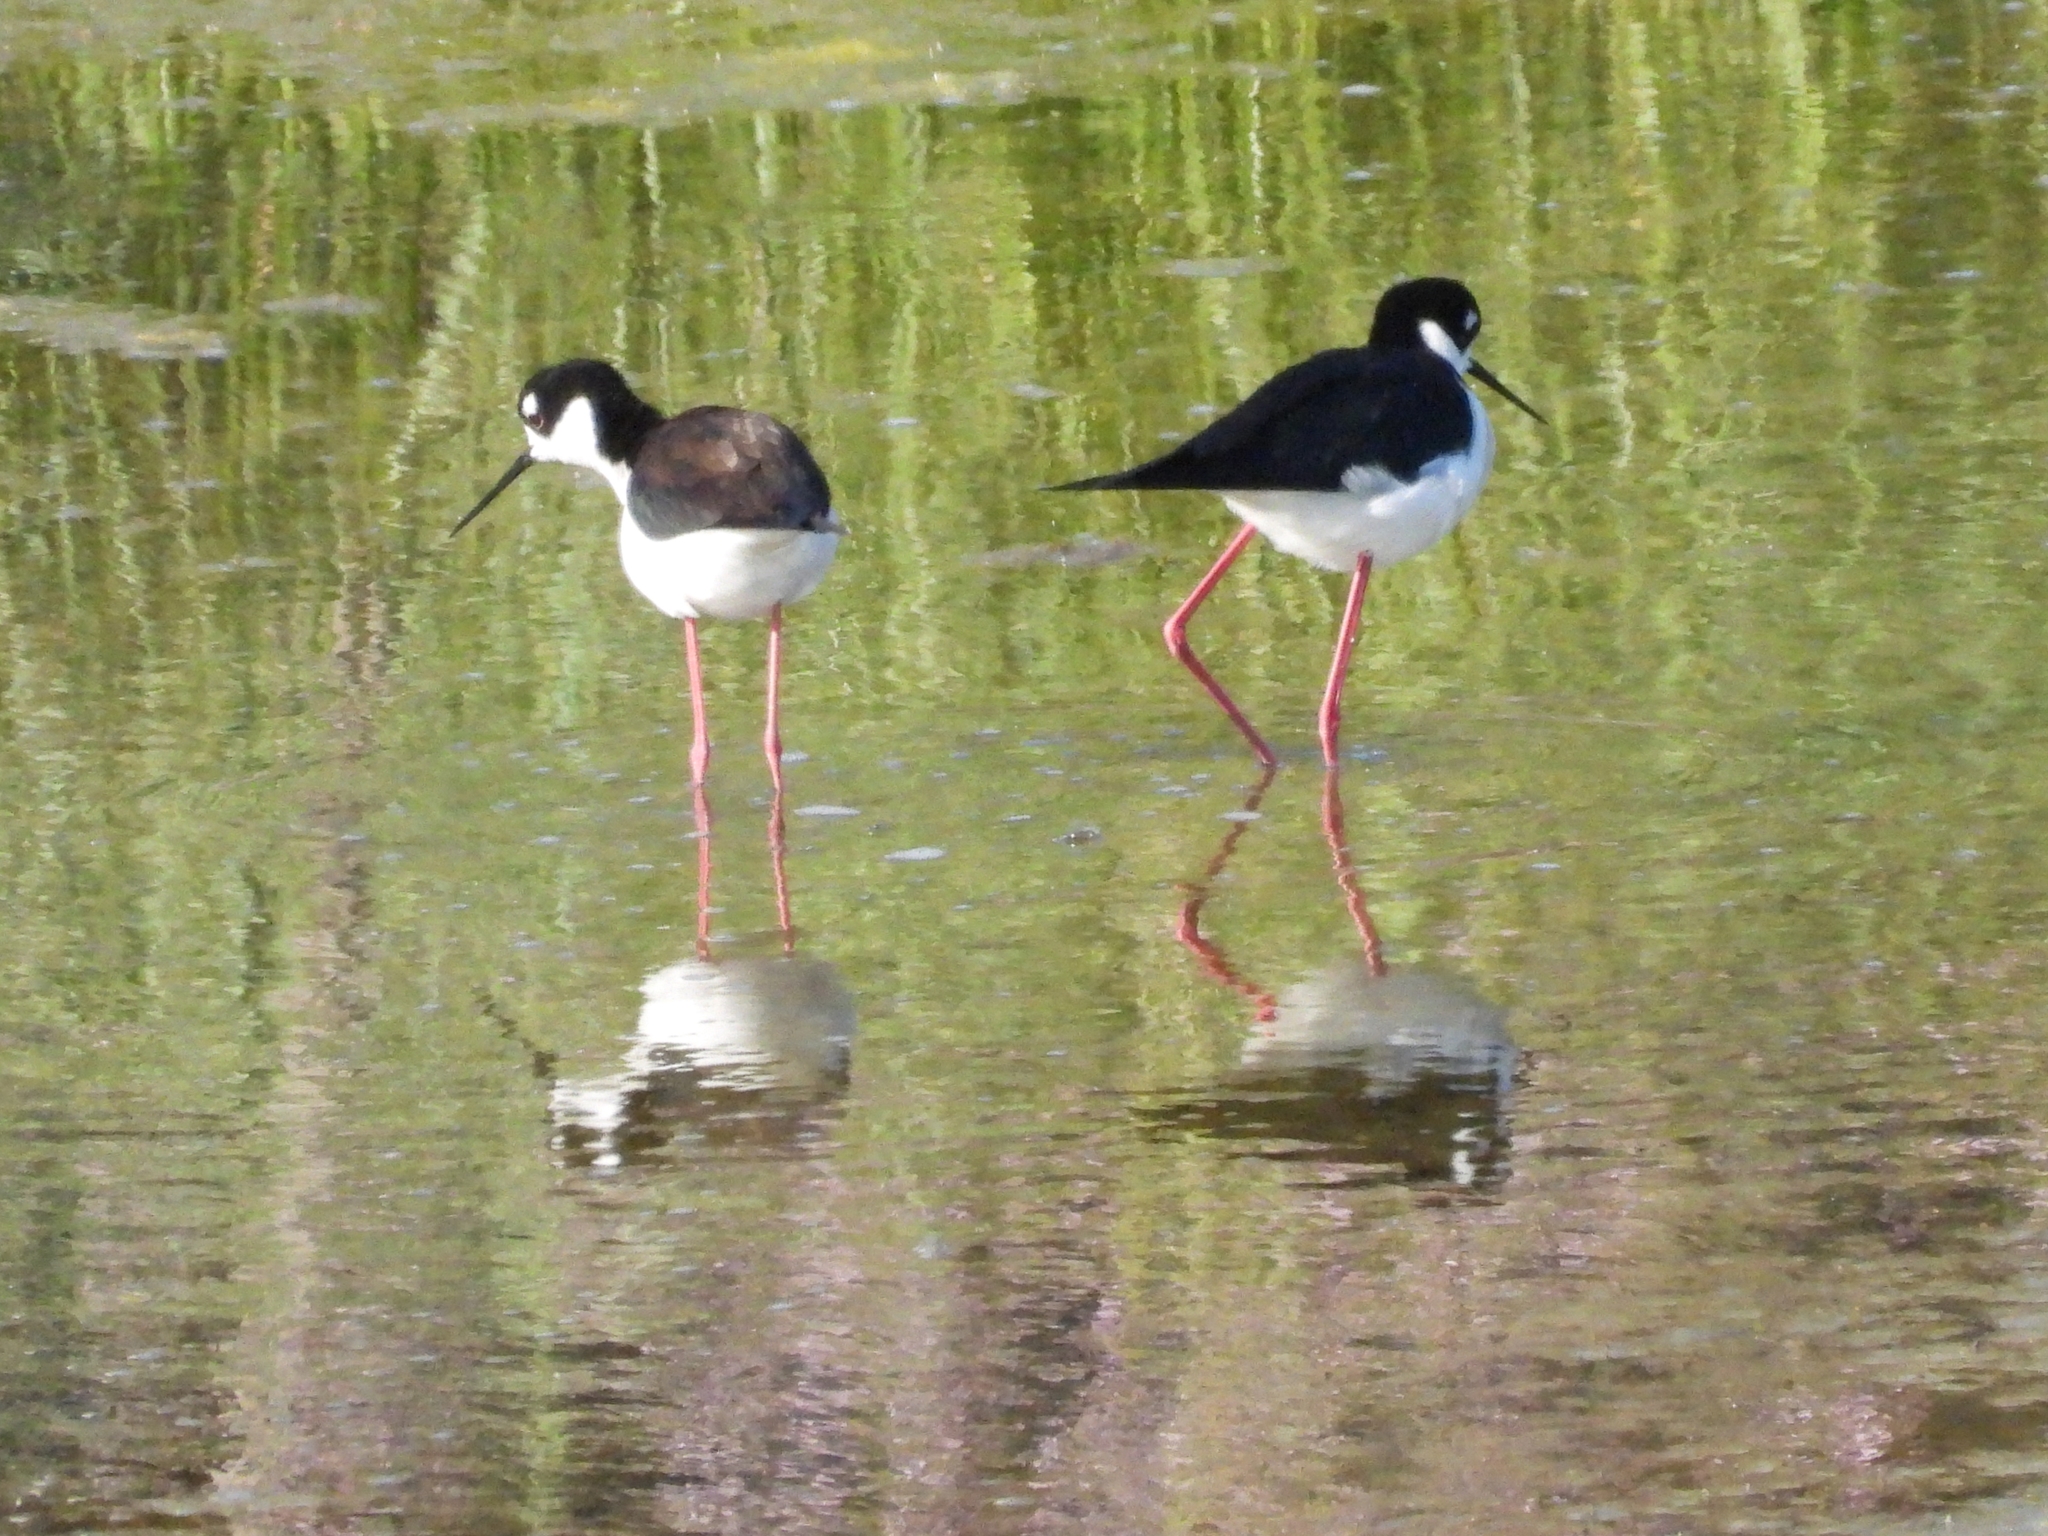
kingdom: Animalia
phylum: Chordata
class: Aves
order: Charadriiformes
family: Recurvirostridae
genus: Himantopus
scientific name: Himantopus mexicanus
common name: Black-necked stilt
